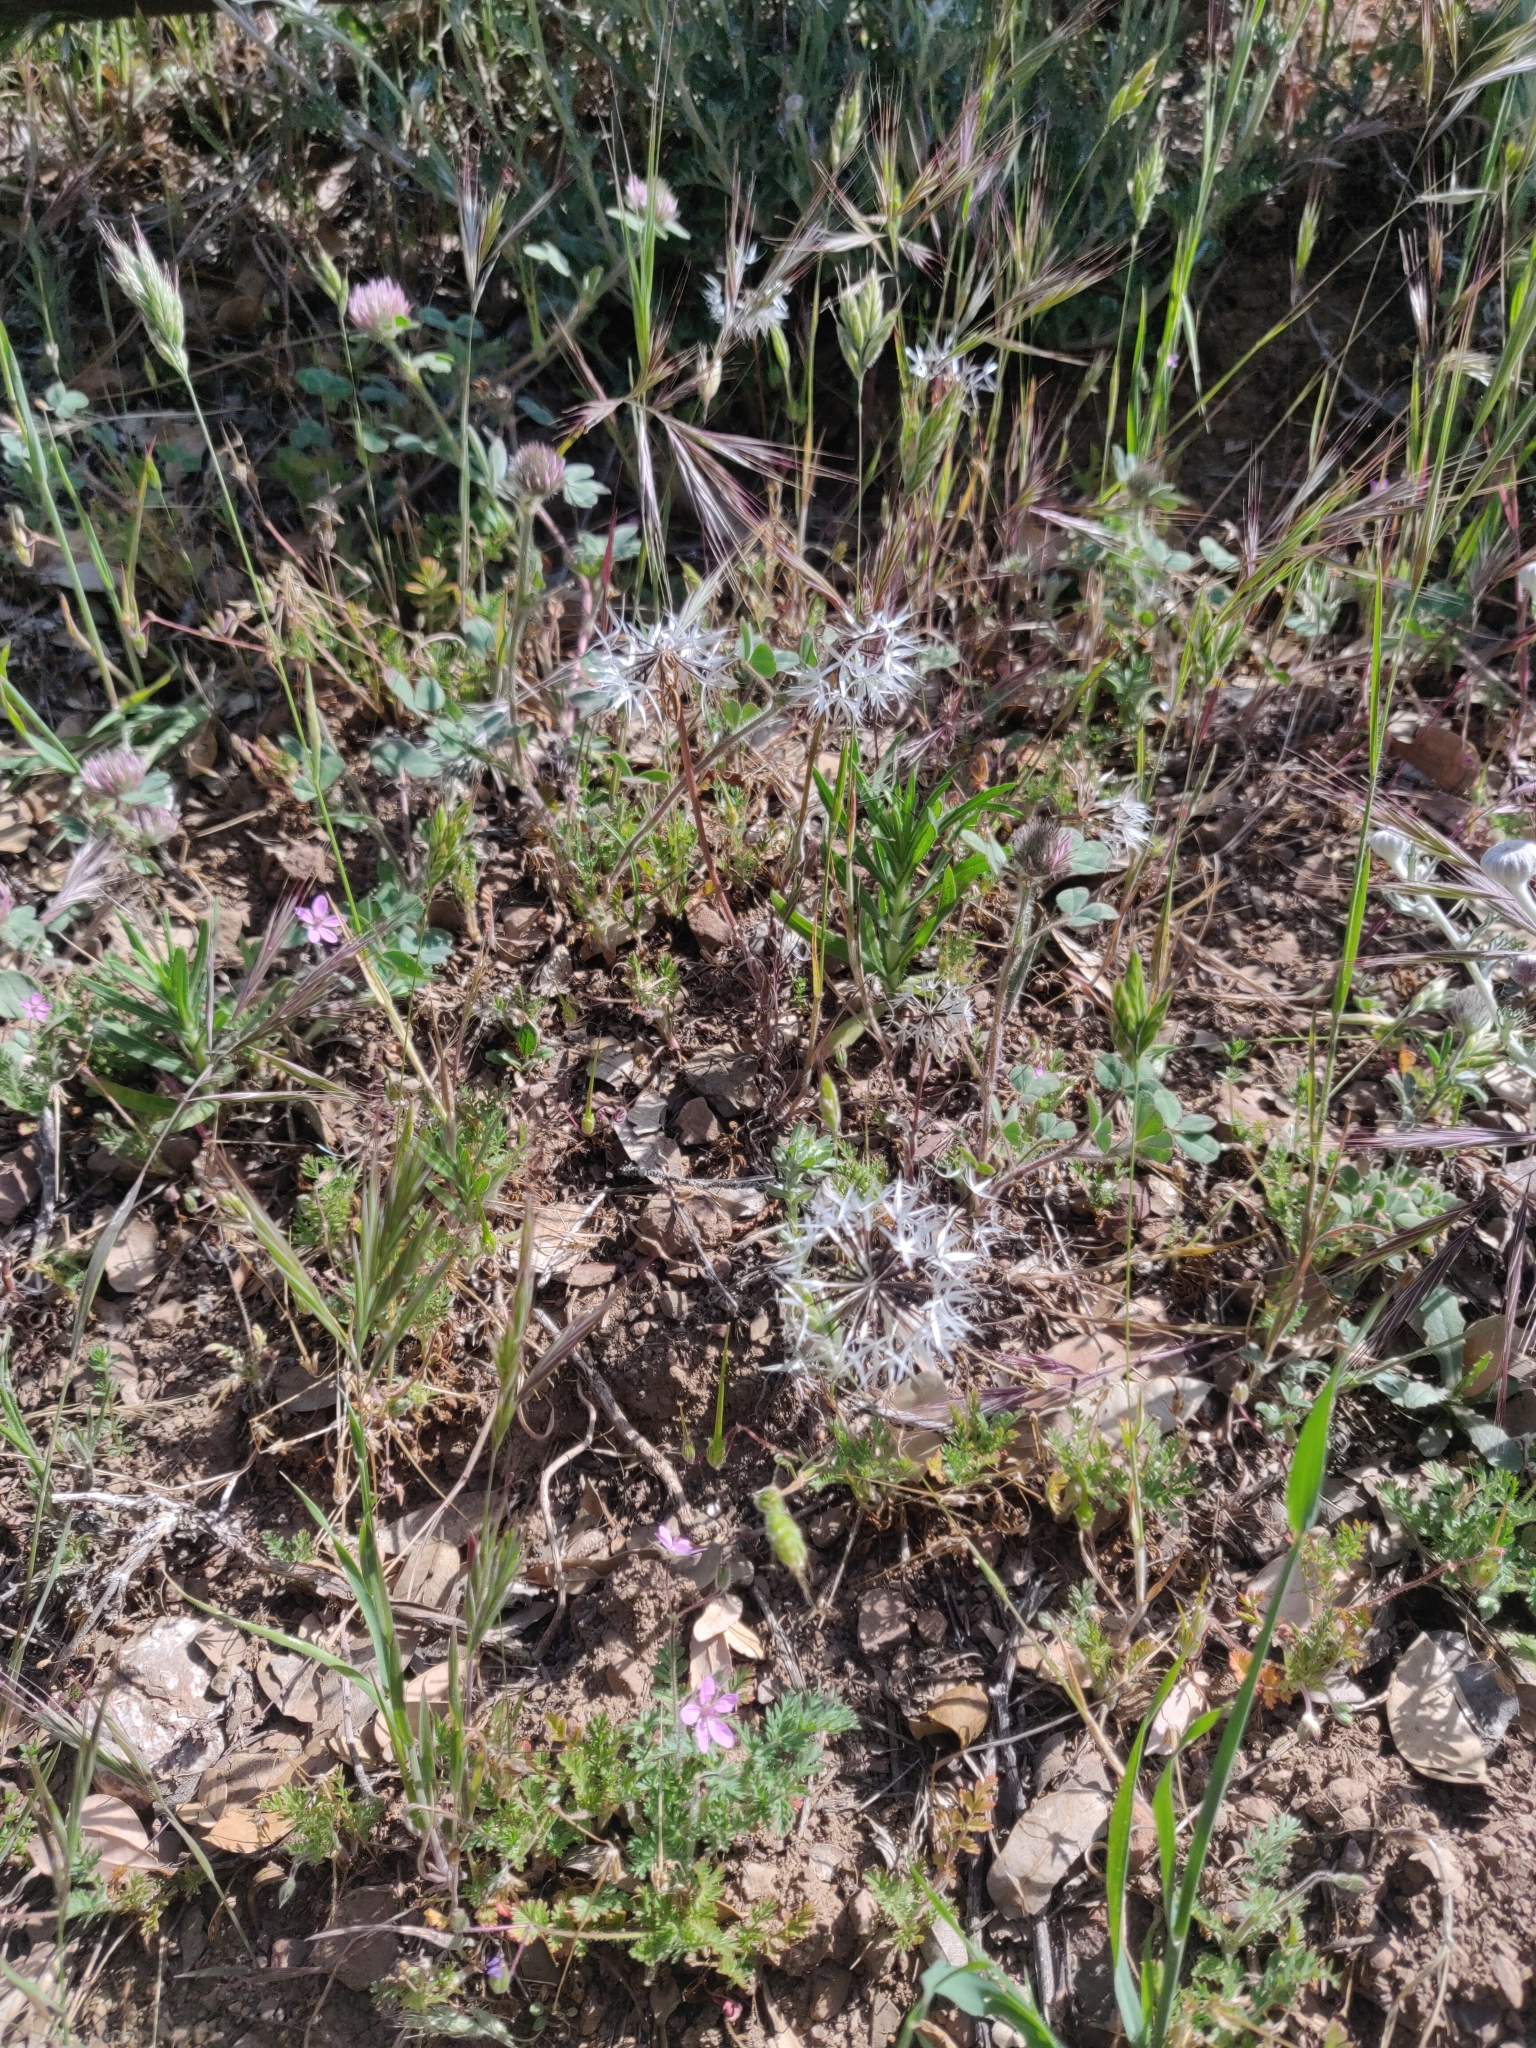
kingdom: Plantae
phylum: Tracheophyta
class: Magnoliopsida
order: Asterales
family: Asteraceae
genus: Microseris
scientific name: Microseris lindleyi
